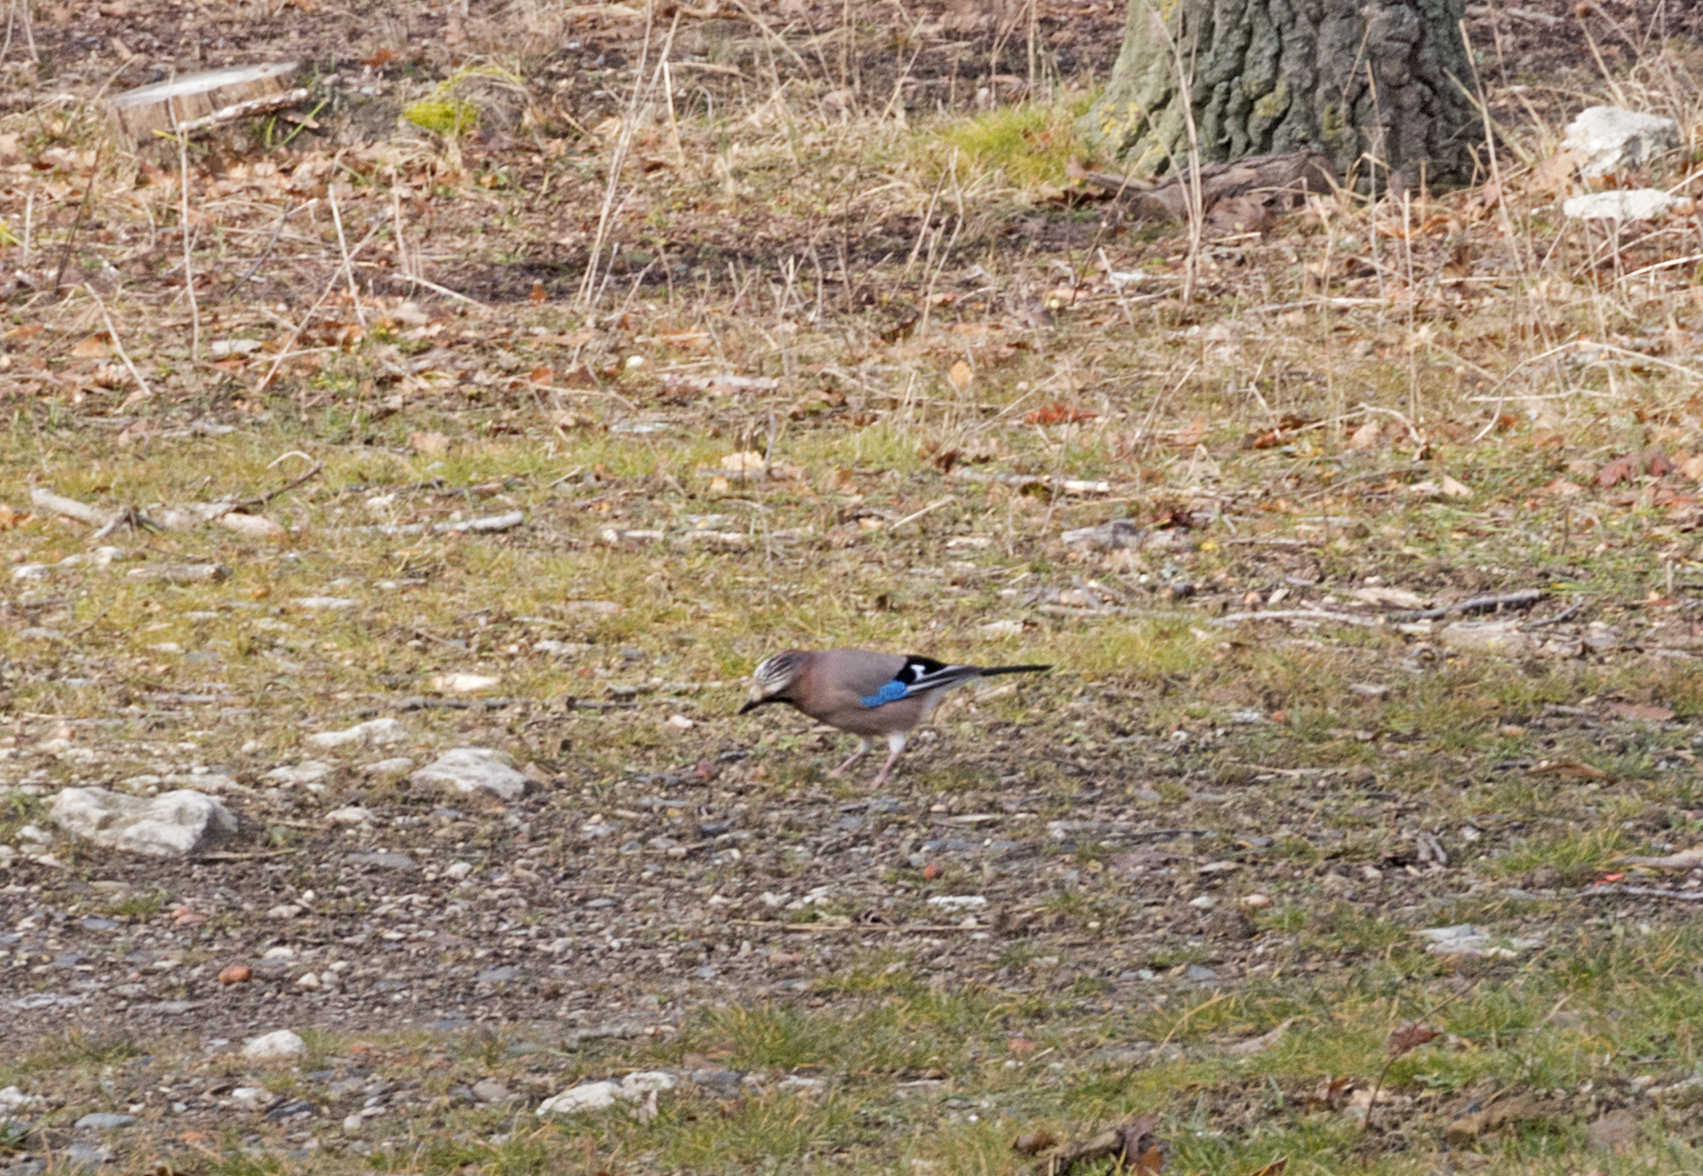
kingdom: Animalia
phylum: Chordata
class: Aves
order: Passeriformes
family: Corvidae
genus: Garrulus
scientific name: Garrulus glandarius
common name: Eurasian jay
